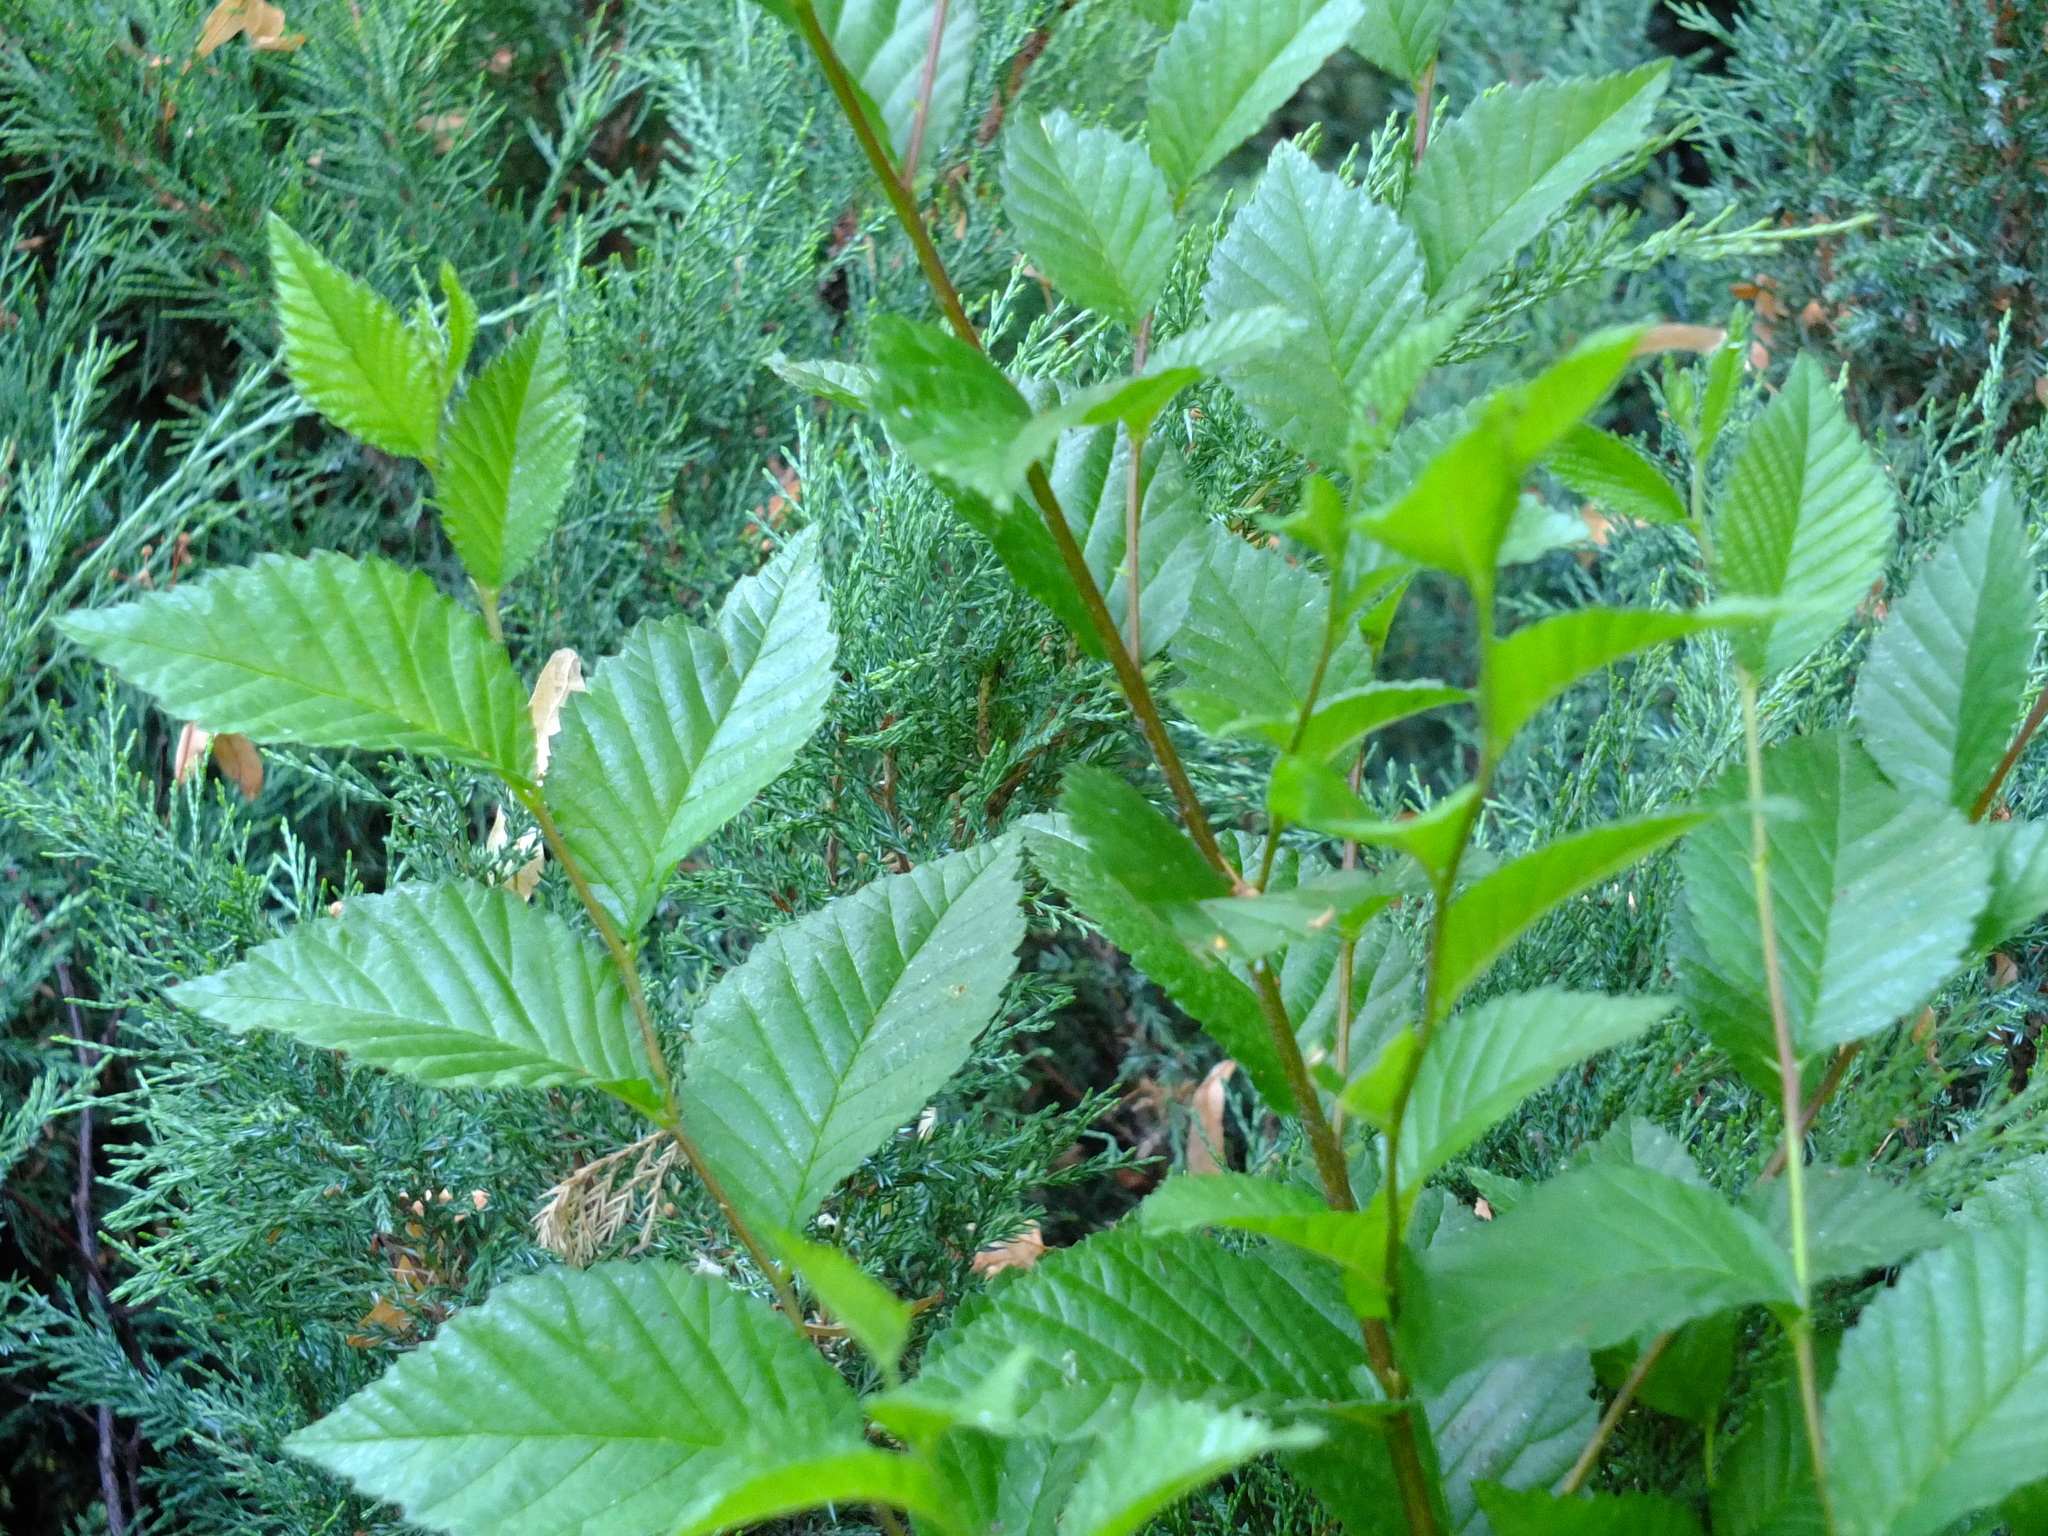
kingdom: Plantae
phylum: Tracheophyta
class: Magnoliopsida
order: Rosales
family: Ulmaceae
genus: Ulmus
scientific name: Ulmus pumila
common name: Siberian elm
